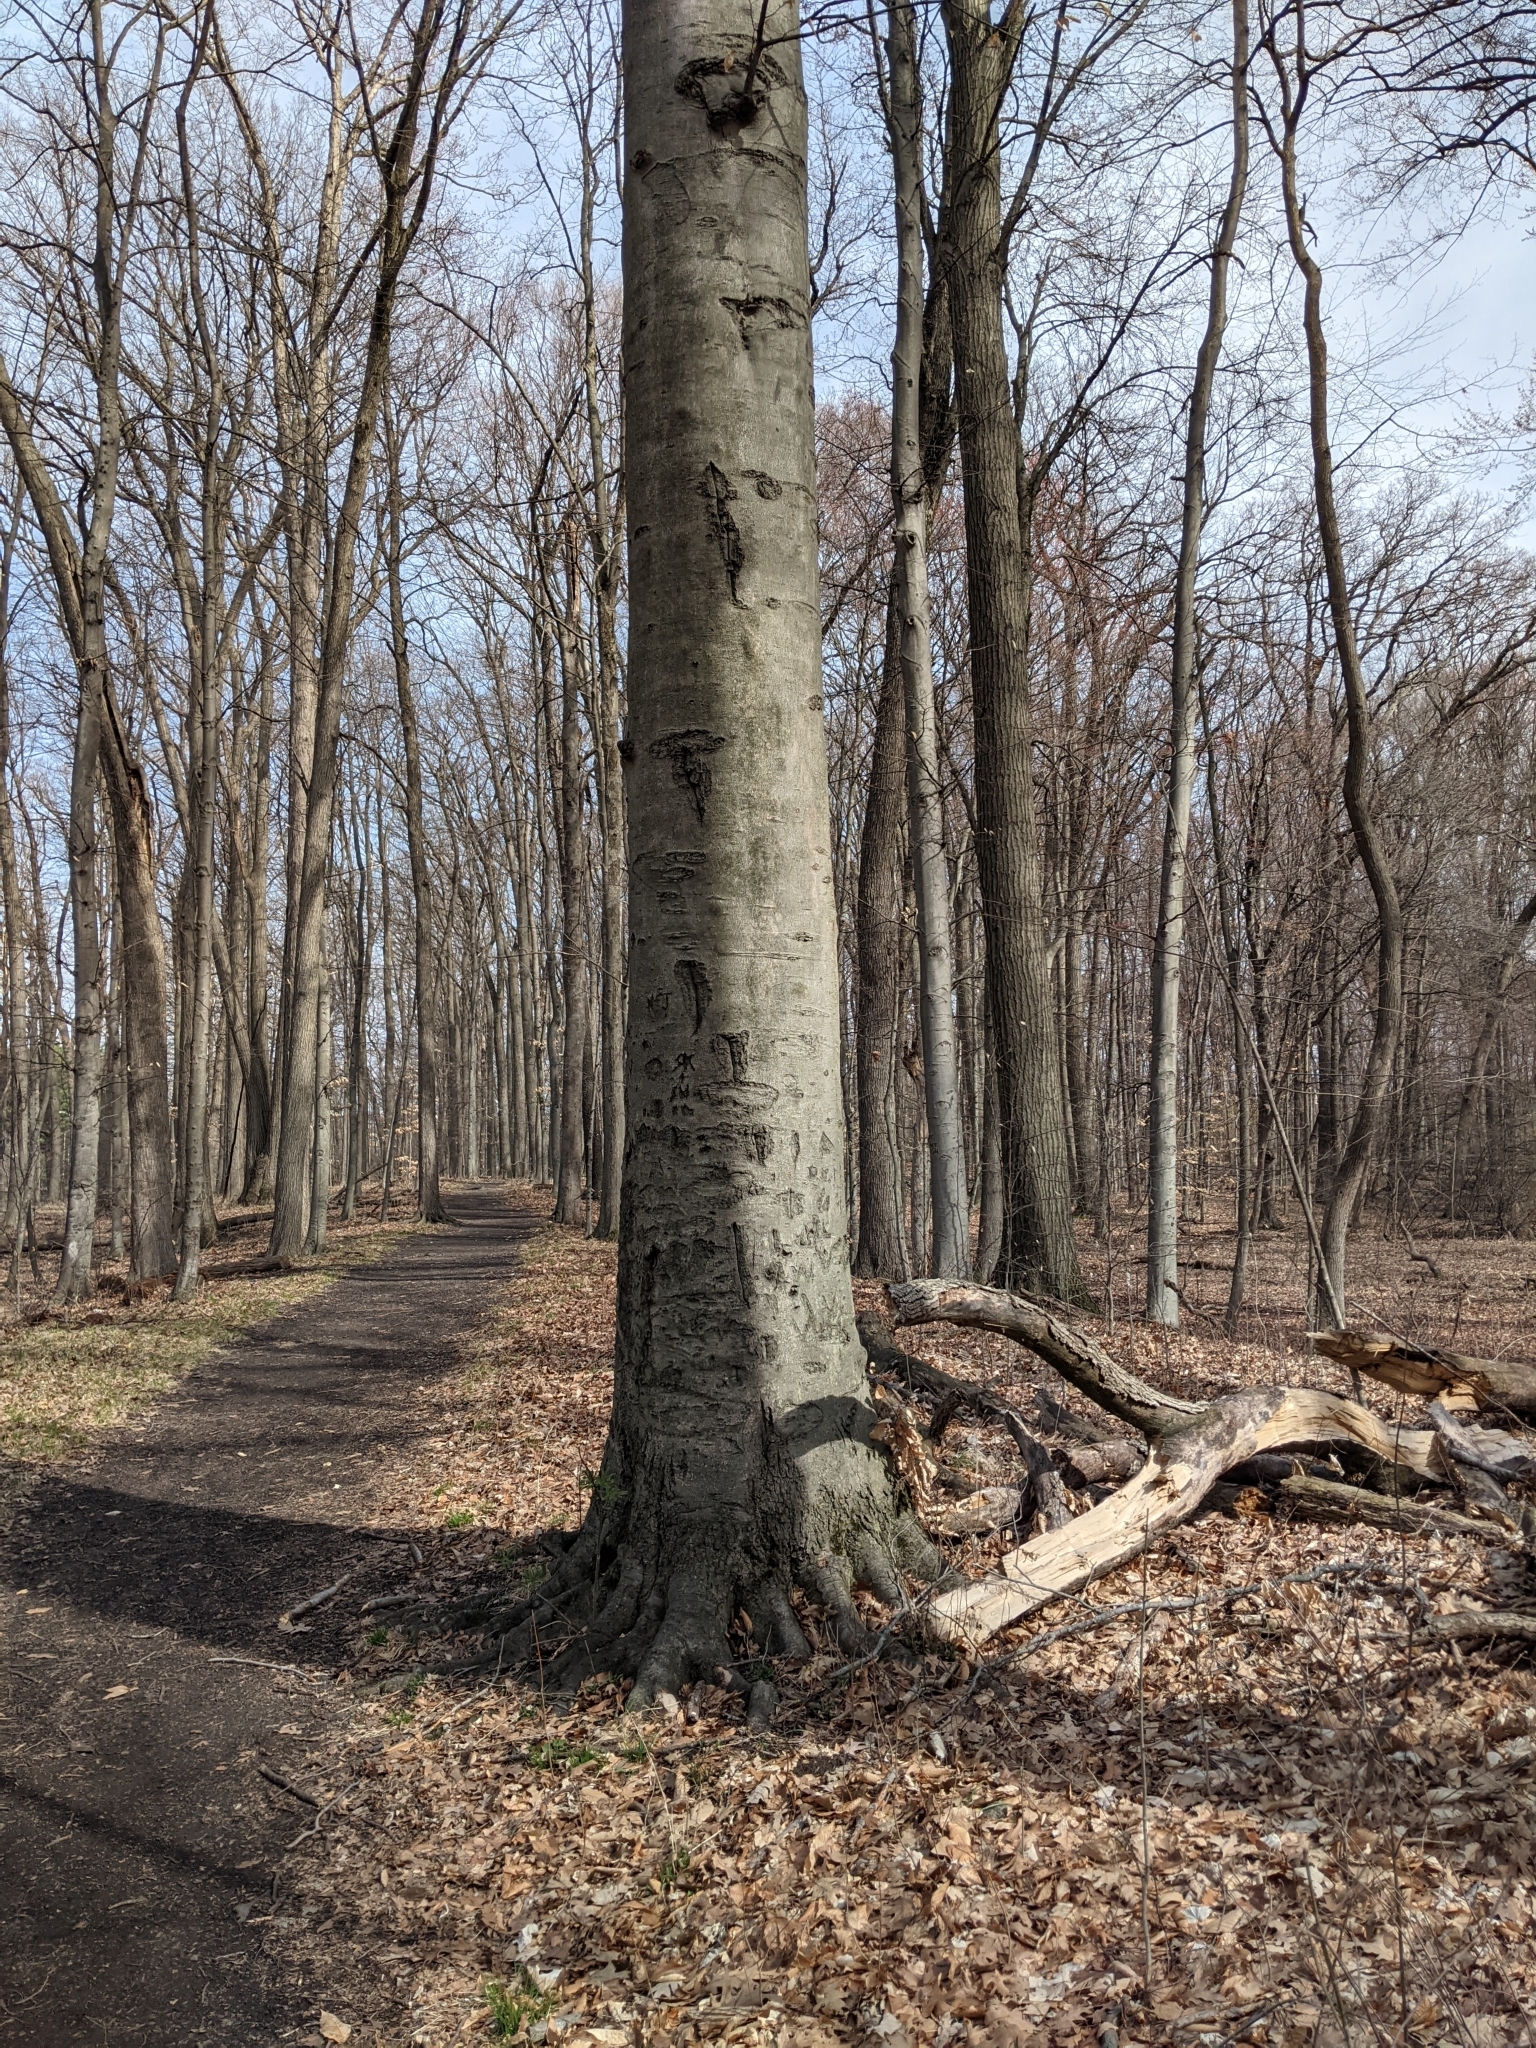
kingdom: Plantae
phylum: Tracheophyta
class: Magnoliopsida
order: Fagales
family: Fagaceae
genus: Fagus
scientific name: Fagus grandifolia
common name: American beech
